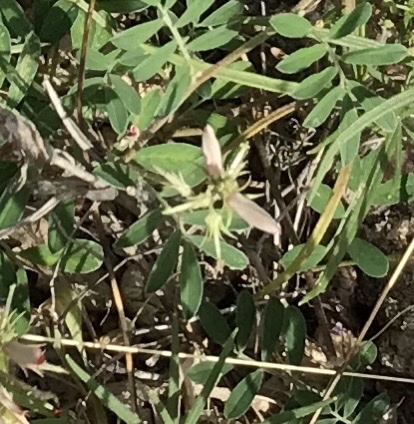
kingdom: Plantae
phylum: Tracheophyta
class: Magnoliopsida
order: Fabales
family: Fabaceae
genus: Indigofera
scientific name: Indigofera miniata
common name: Coast indigo
